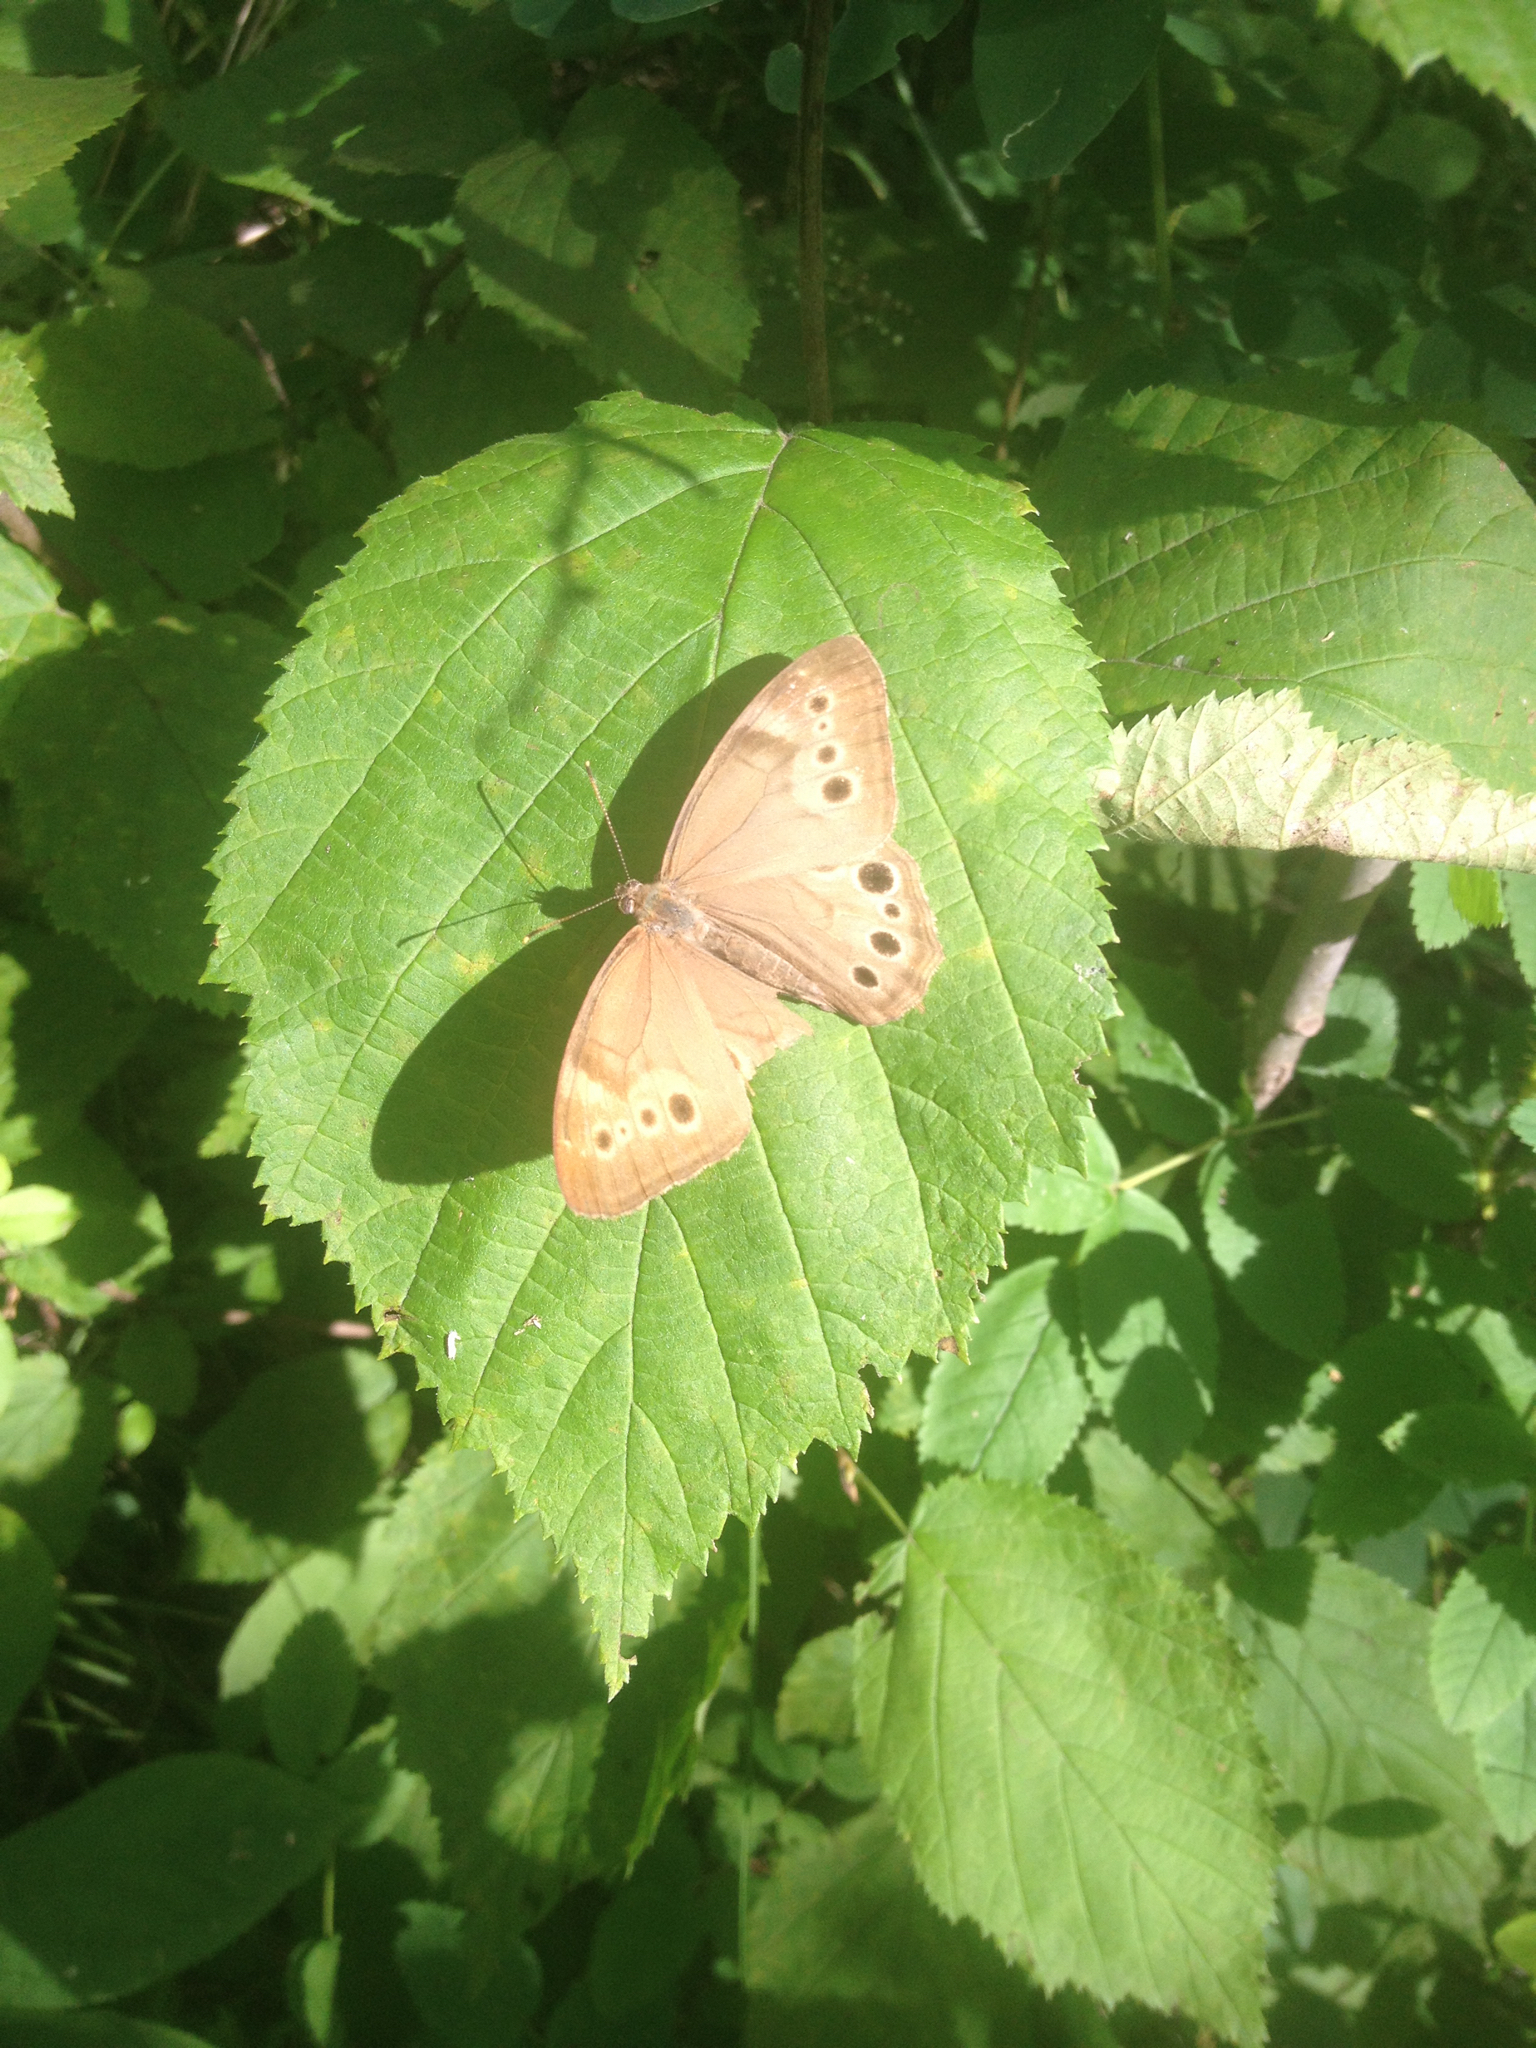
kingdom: Animalia
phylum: Arthropoda
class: Insecta
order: Lepidoptera
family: Nymphalidae
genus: Lethe
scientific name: Lethe anthedon
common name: Northern pearly-eye
